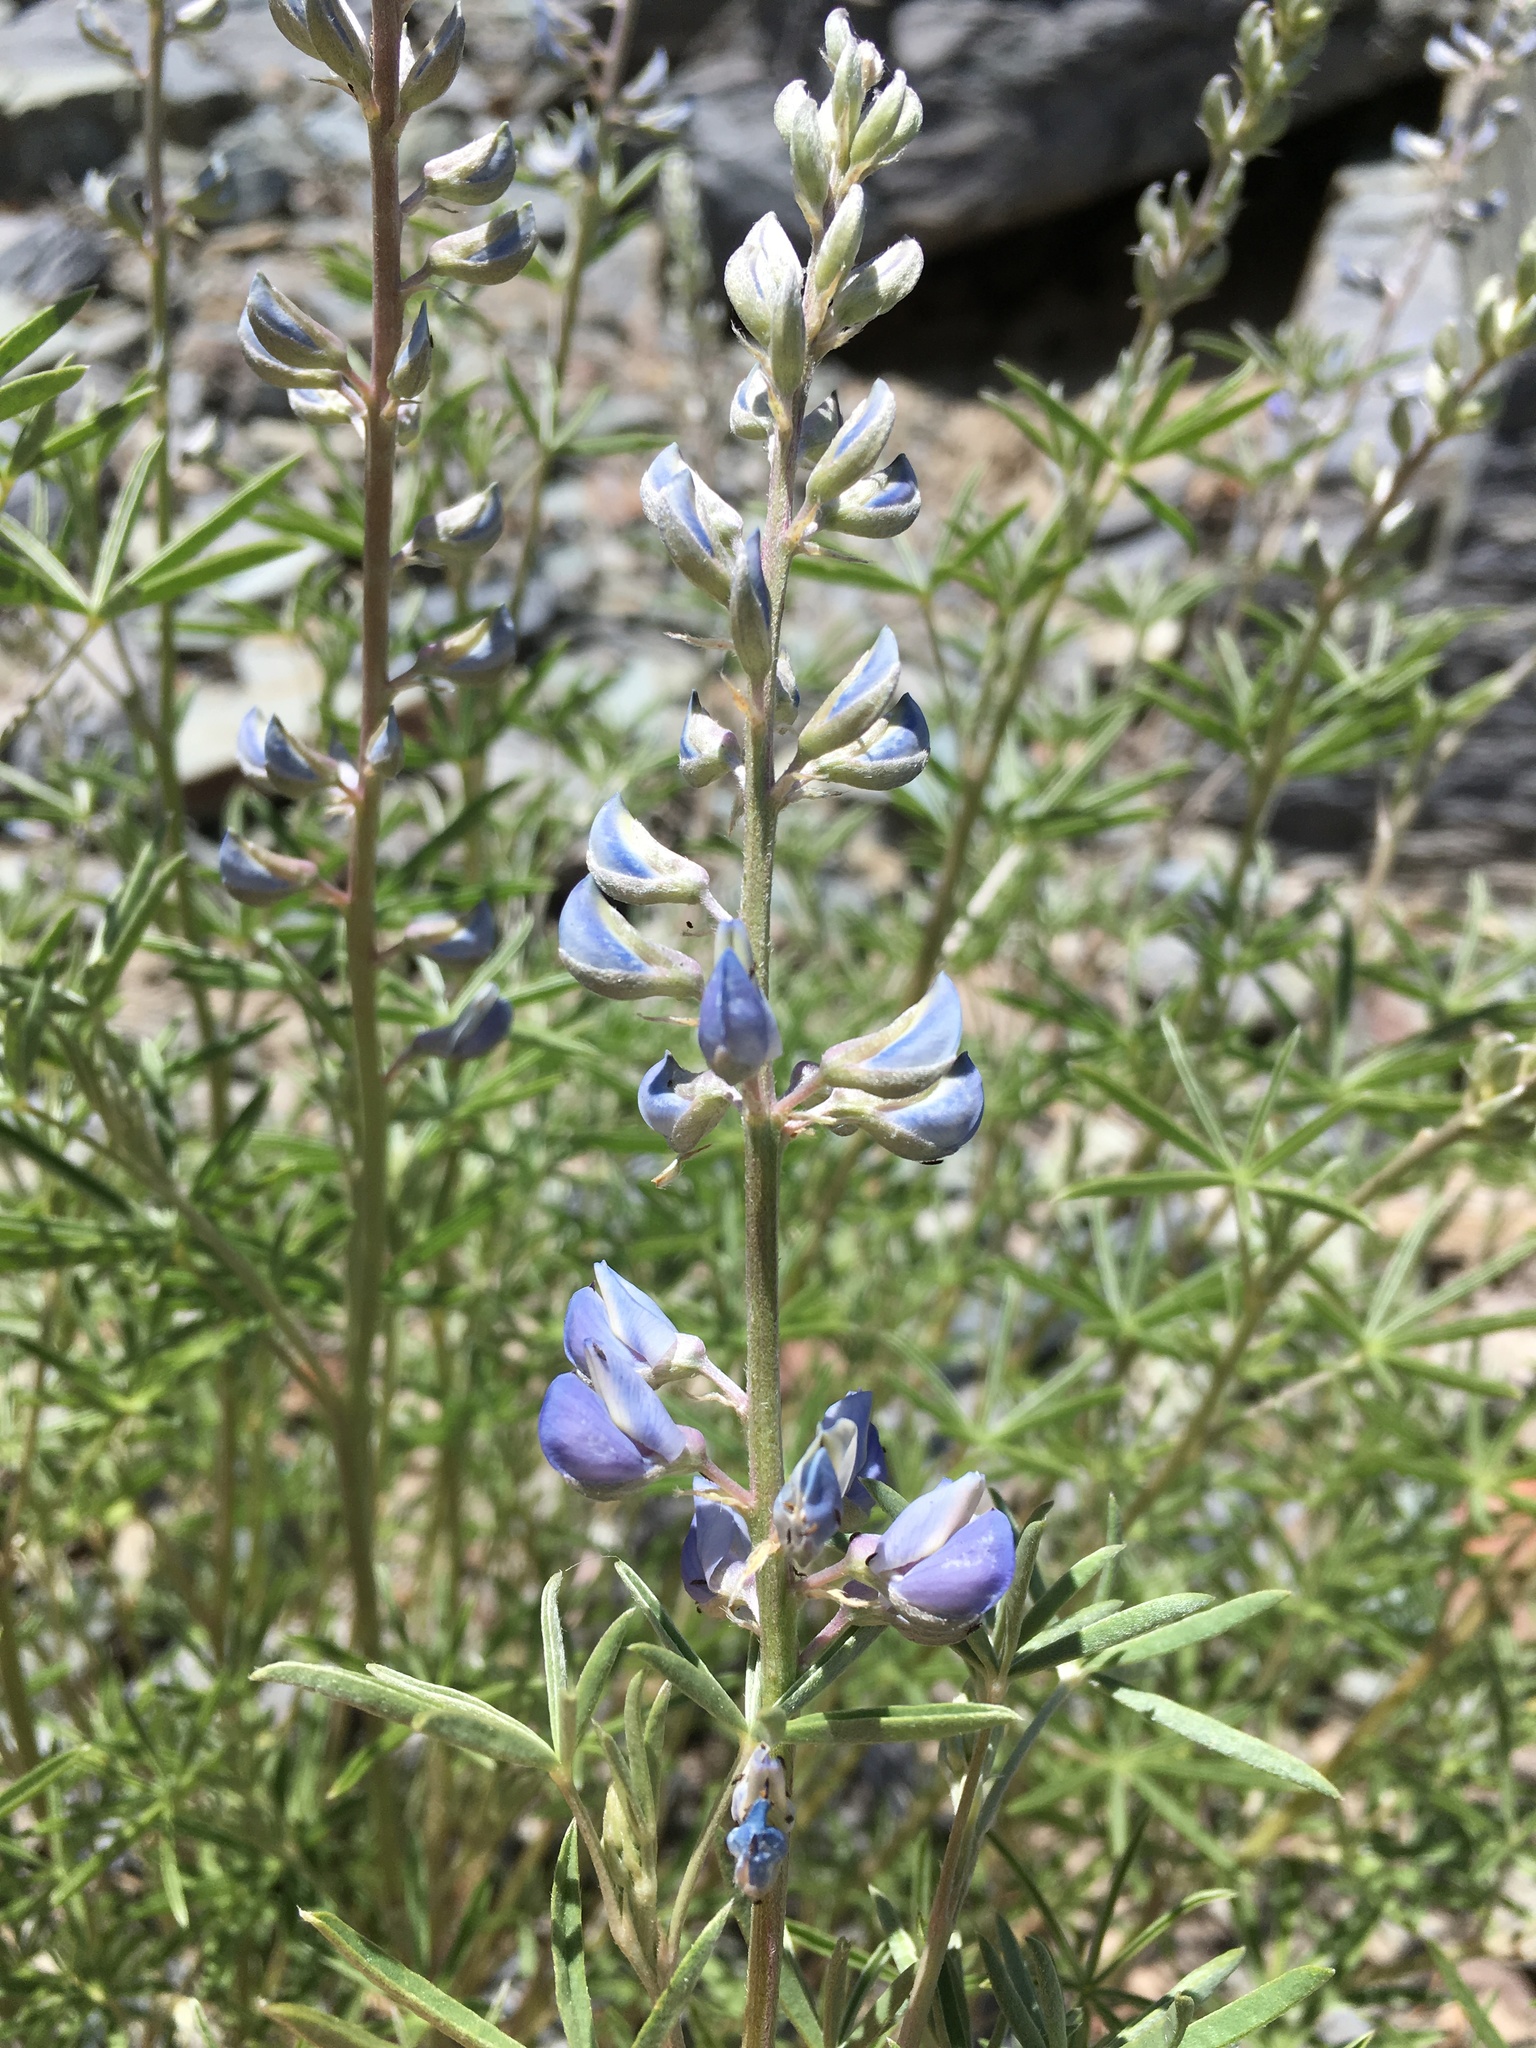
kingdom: Plantae
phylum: Tracheophyta
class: Magnoliopsida
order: Fabales
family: Fabaceae
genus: Lupinus
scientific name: Lupinus argenteus
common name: Silvery lupine
